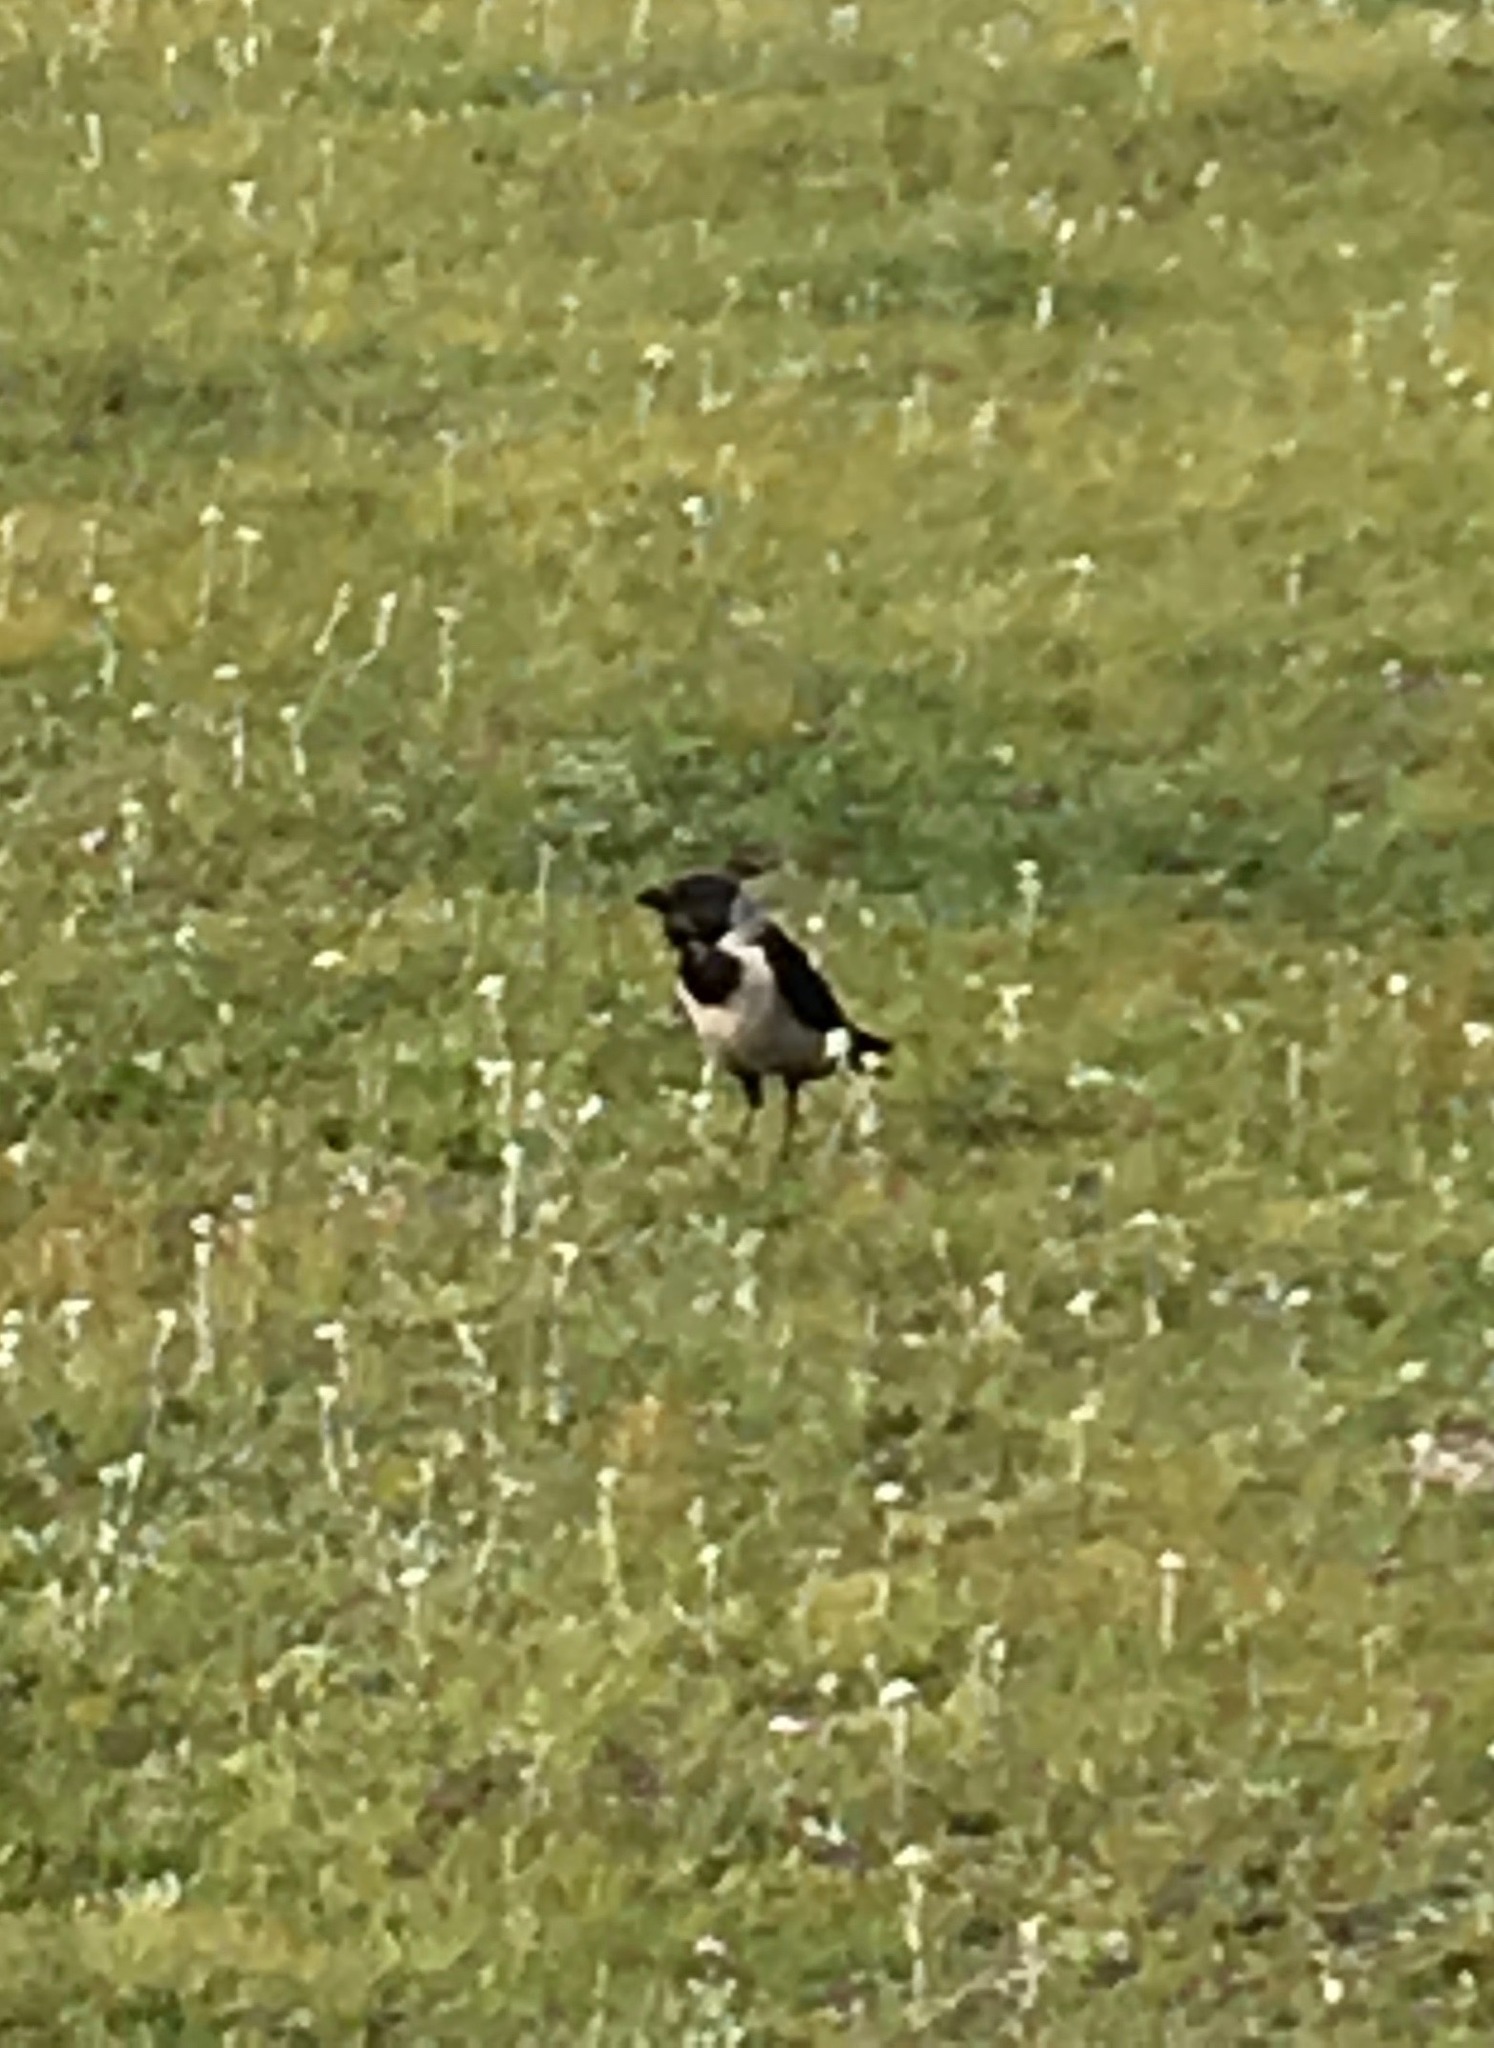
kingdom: Animalia
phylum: Chordata
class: Aves
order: Passeriformes
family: Corvidae
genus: Coloeus
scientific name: Coloeus dauuricus
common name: Daurian jackdaw
